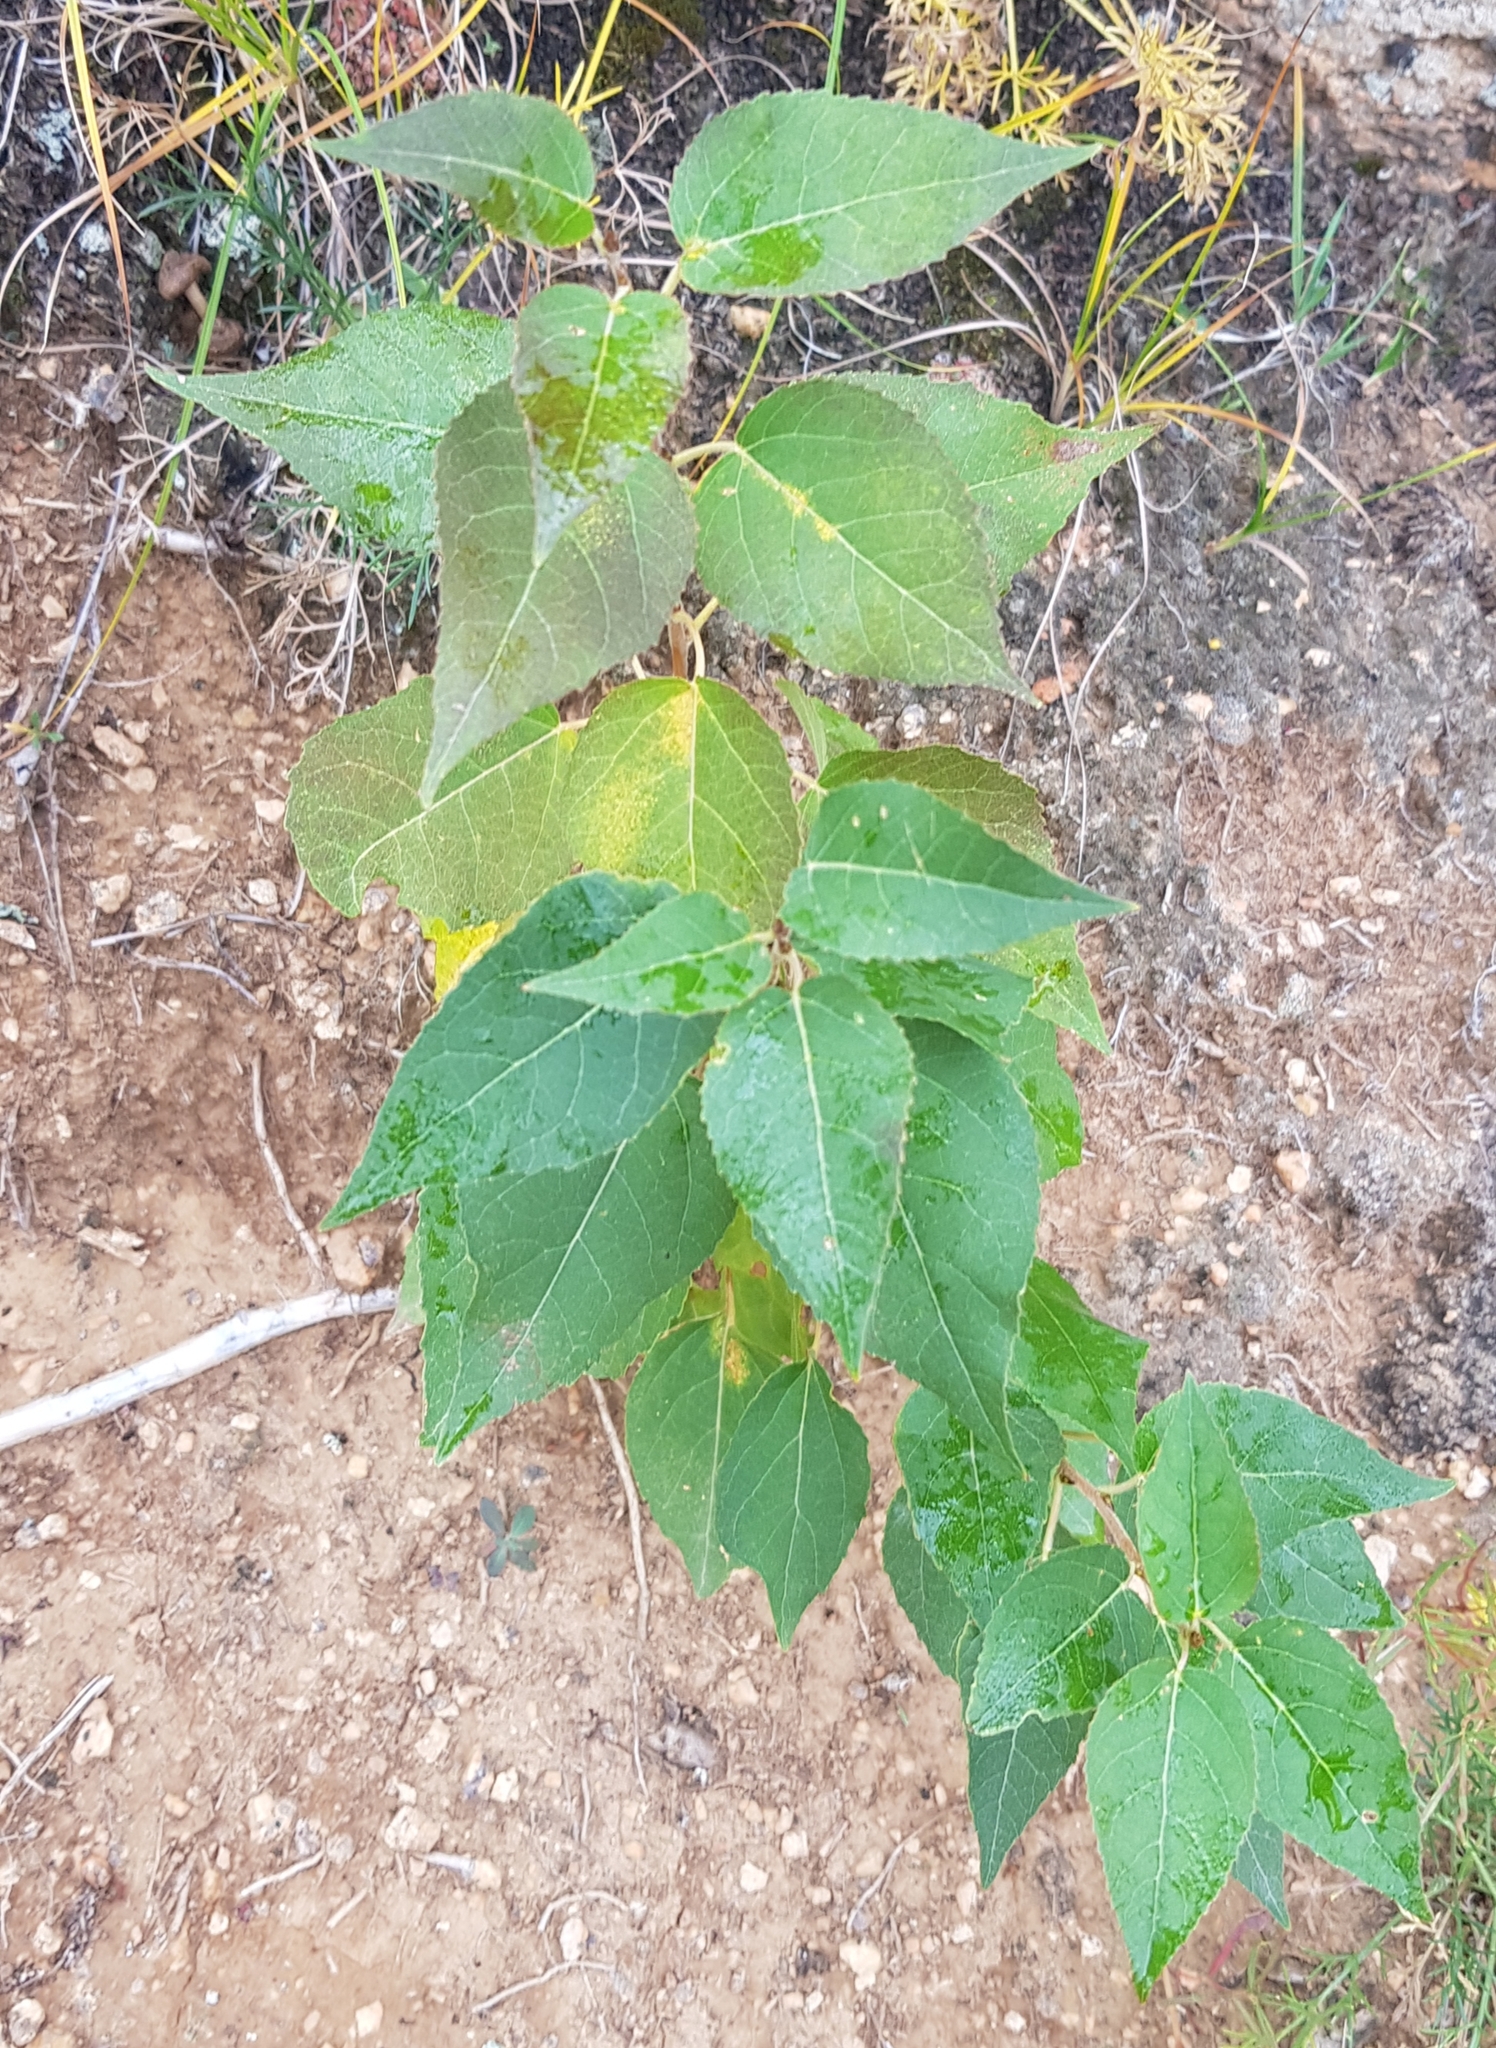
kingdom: Plantae
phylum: Tracheophyta
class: Magnoliopsida
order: Malpighiales
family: Salicaceae
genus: Populus
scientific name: Populus laurifolia
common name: Laurel-leaf poplar
